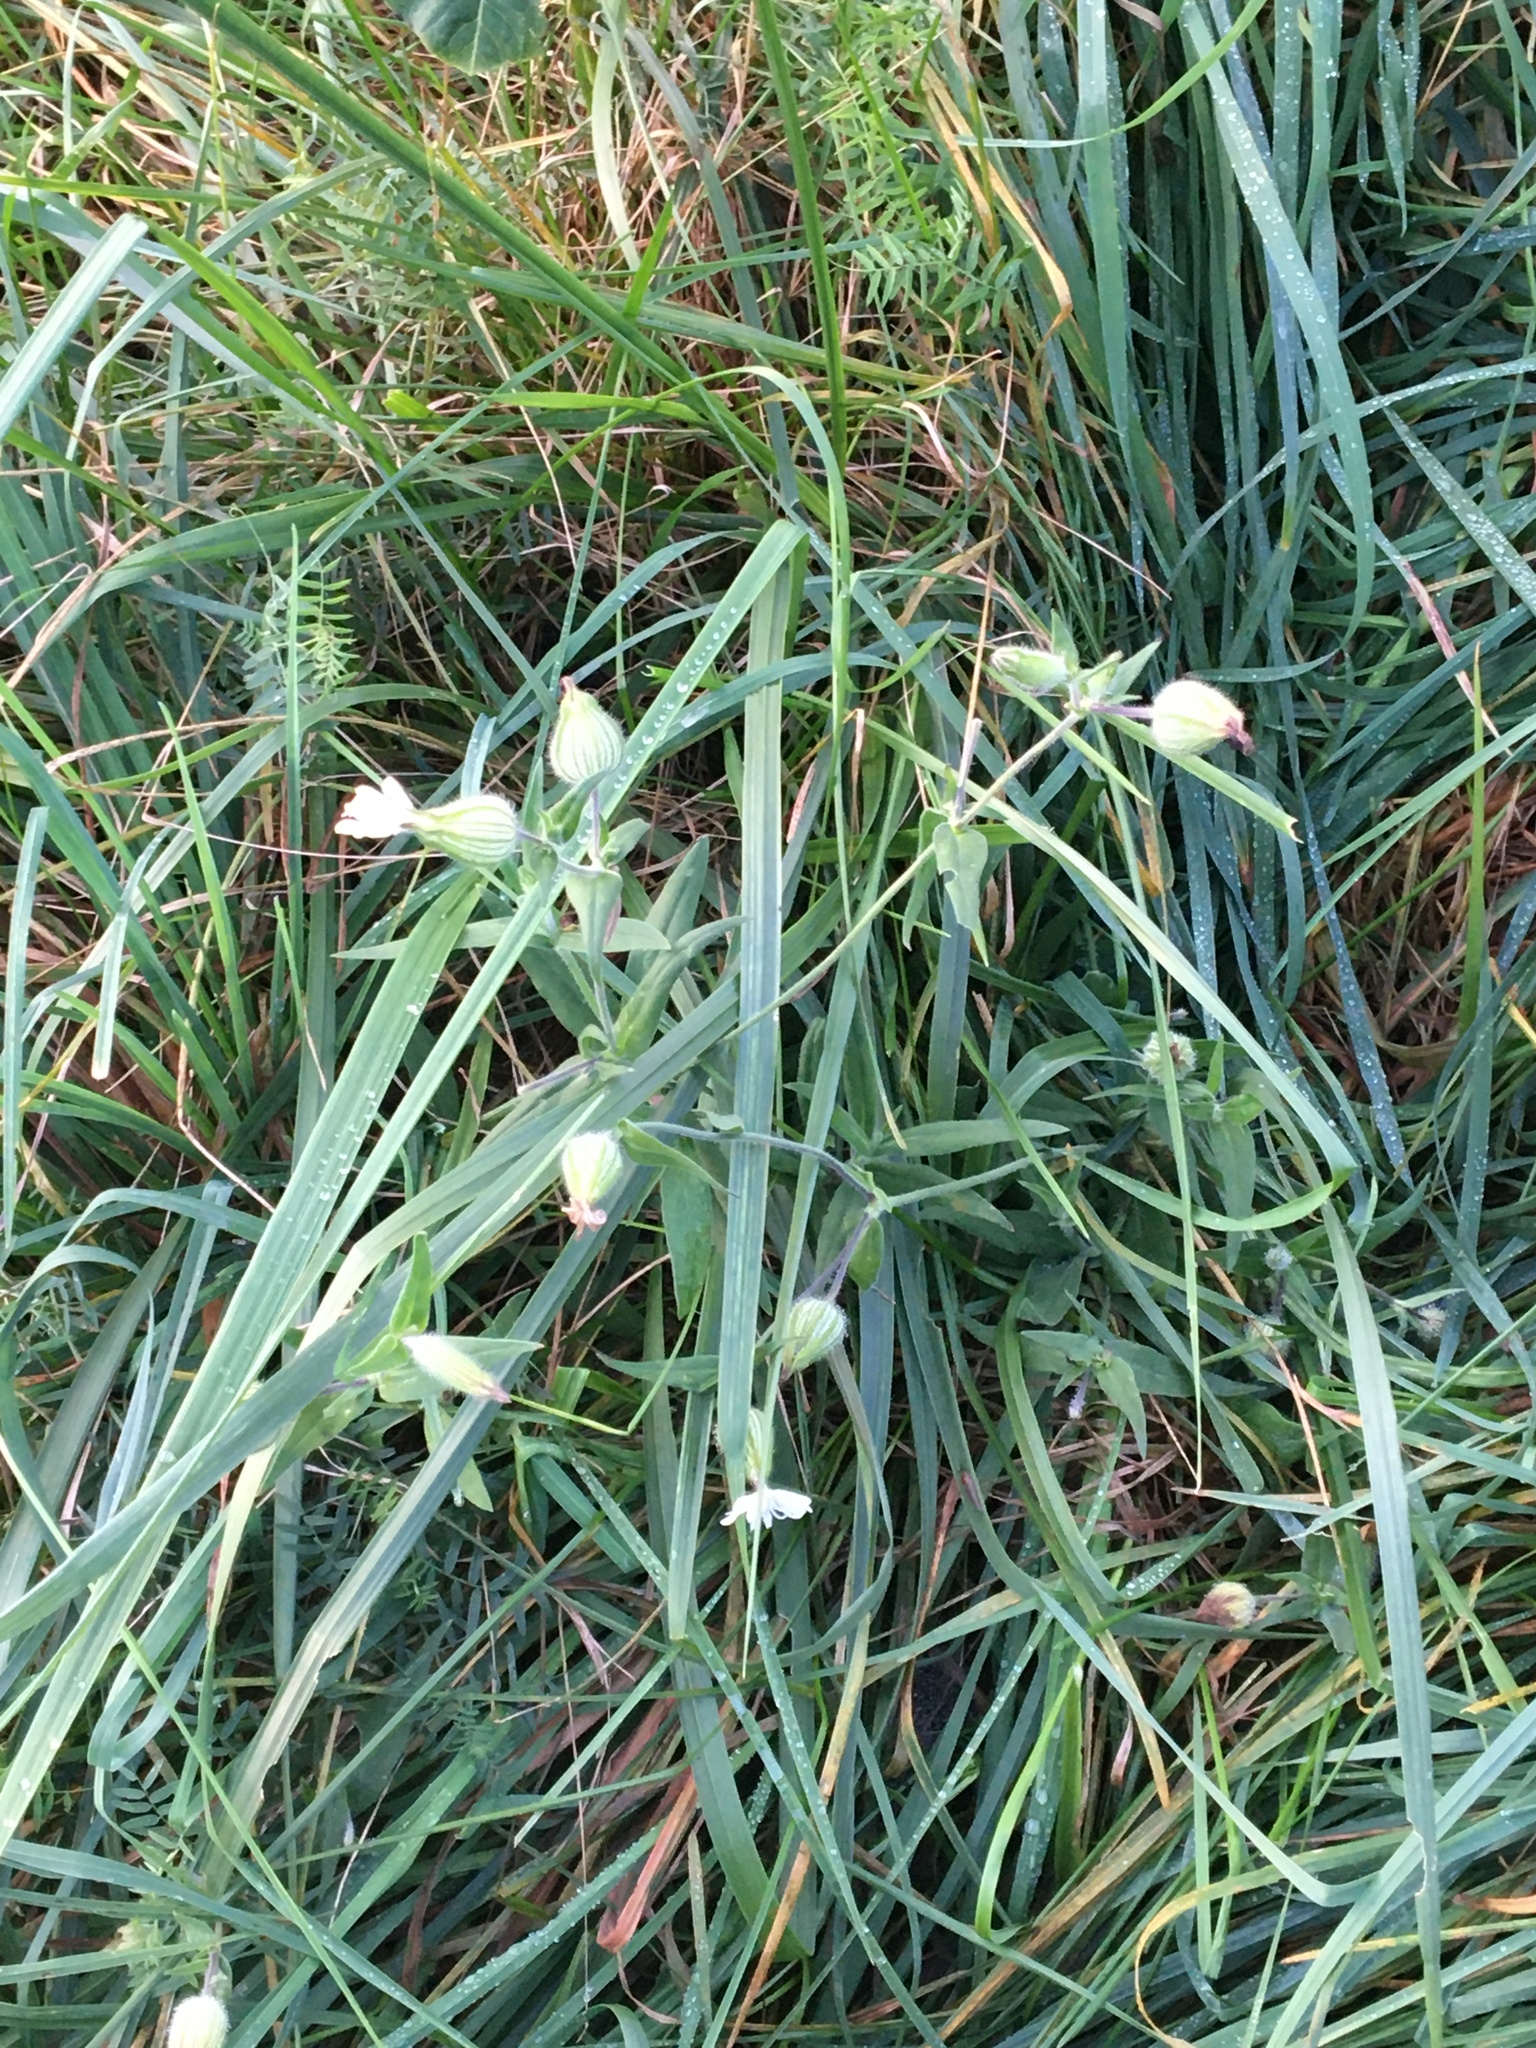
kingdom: Plantae
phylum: Tracheophyta
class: Magnoliopsida
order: Caryophyllales
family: Caryophyllaceae
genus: Silene
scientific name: Silene latifolia
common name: White campion
